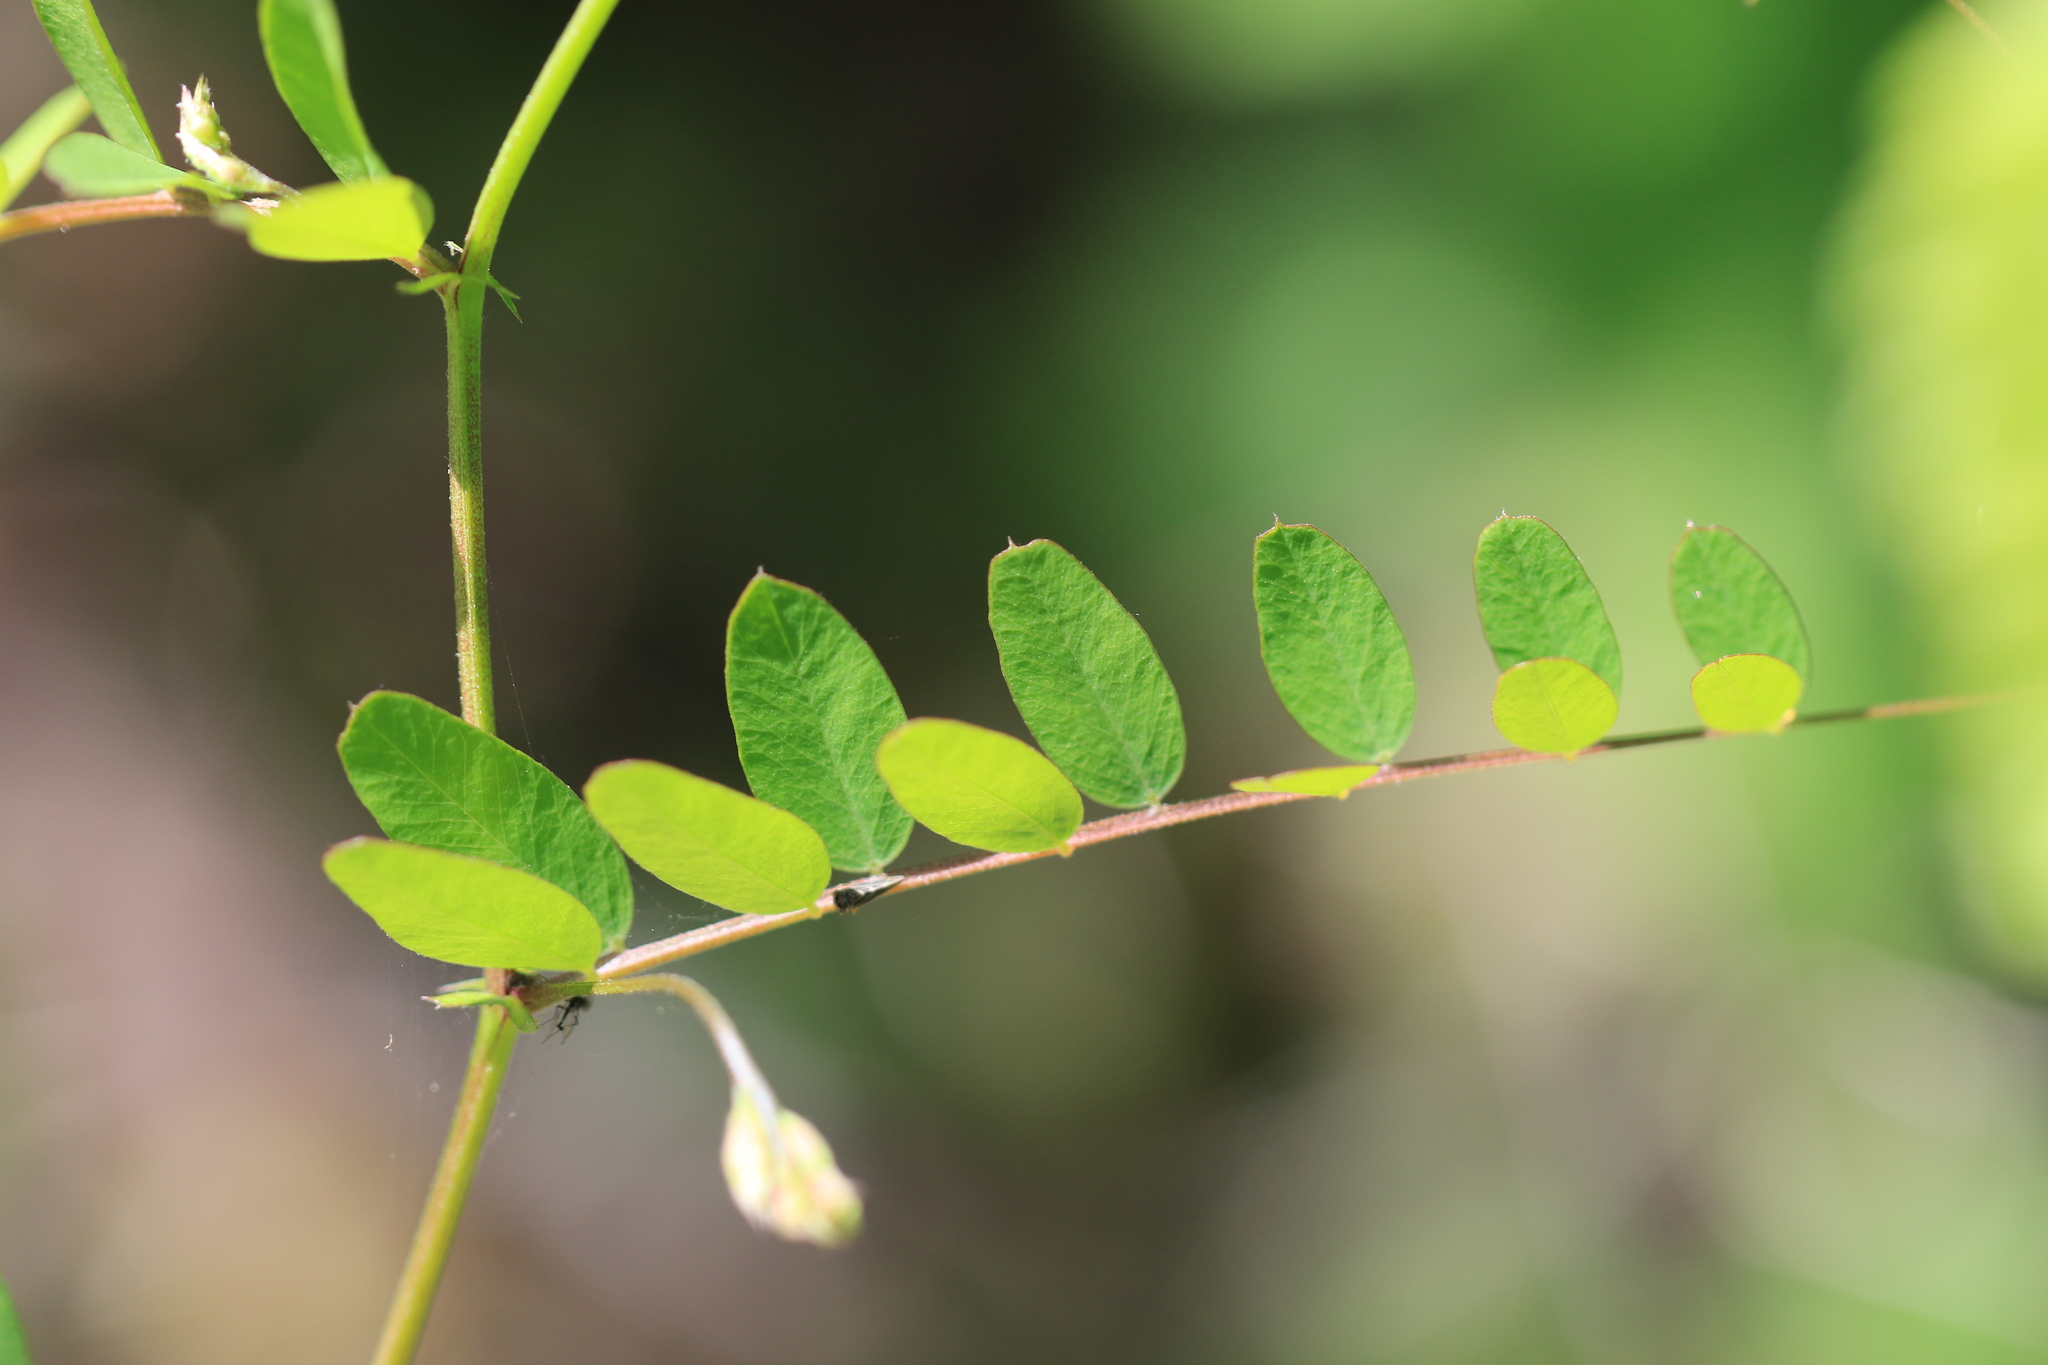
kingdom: Plantae
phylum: Tracheophyta
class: Magnoliopsida
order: Fabales
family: Fabaceae
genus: Vicia
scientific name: Vicia americana
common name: American vetch
